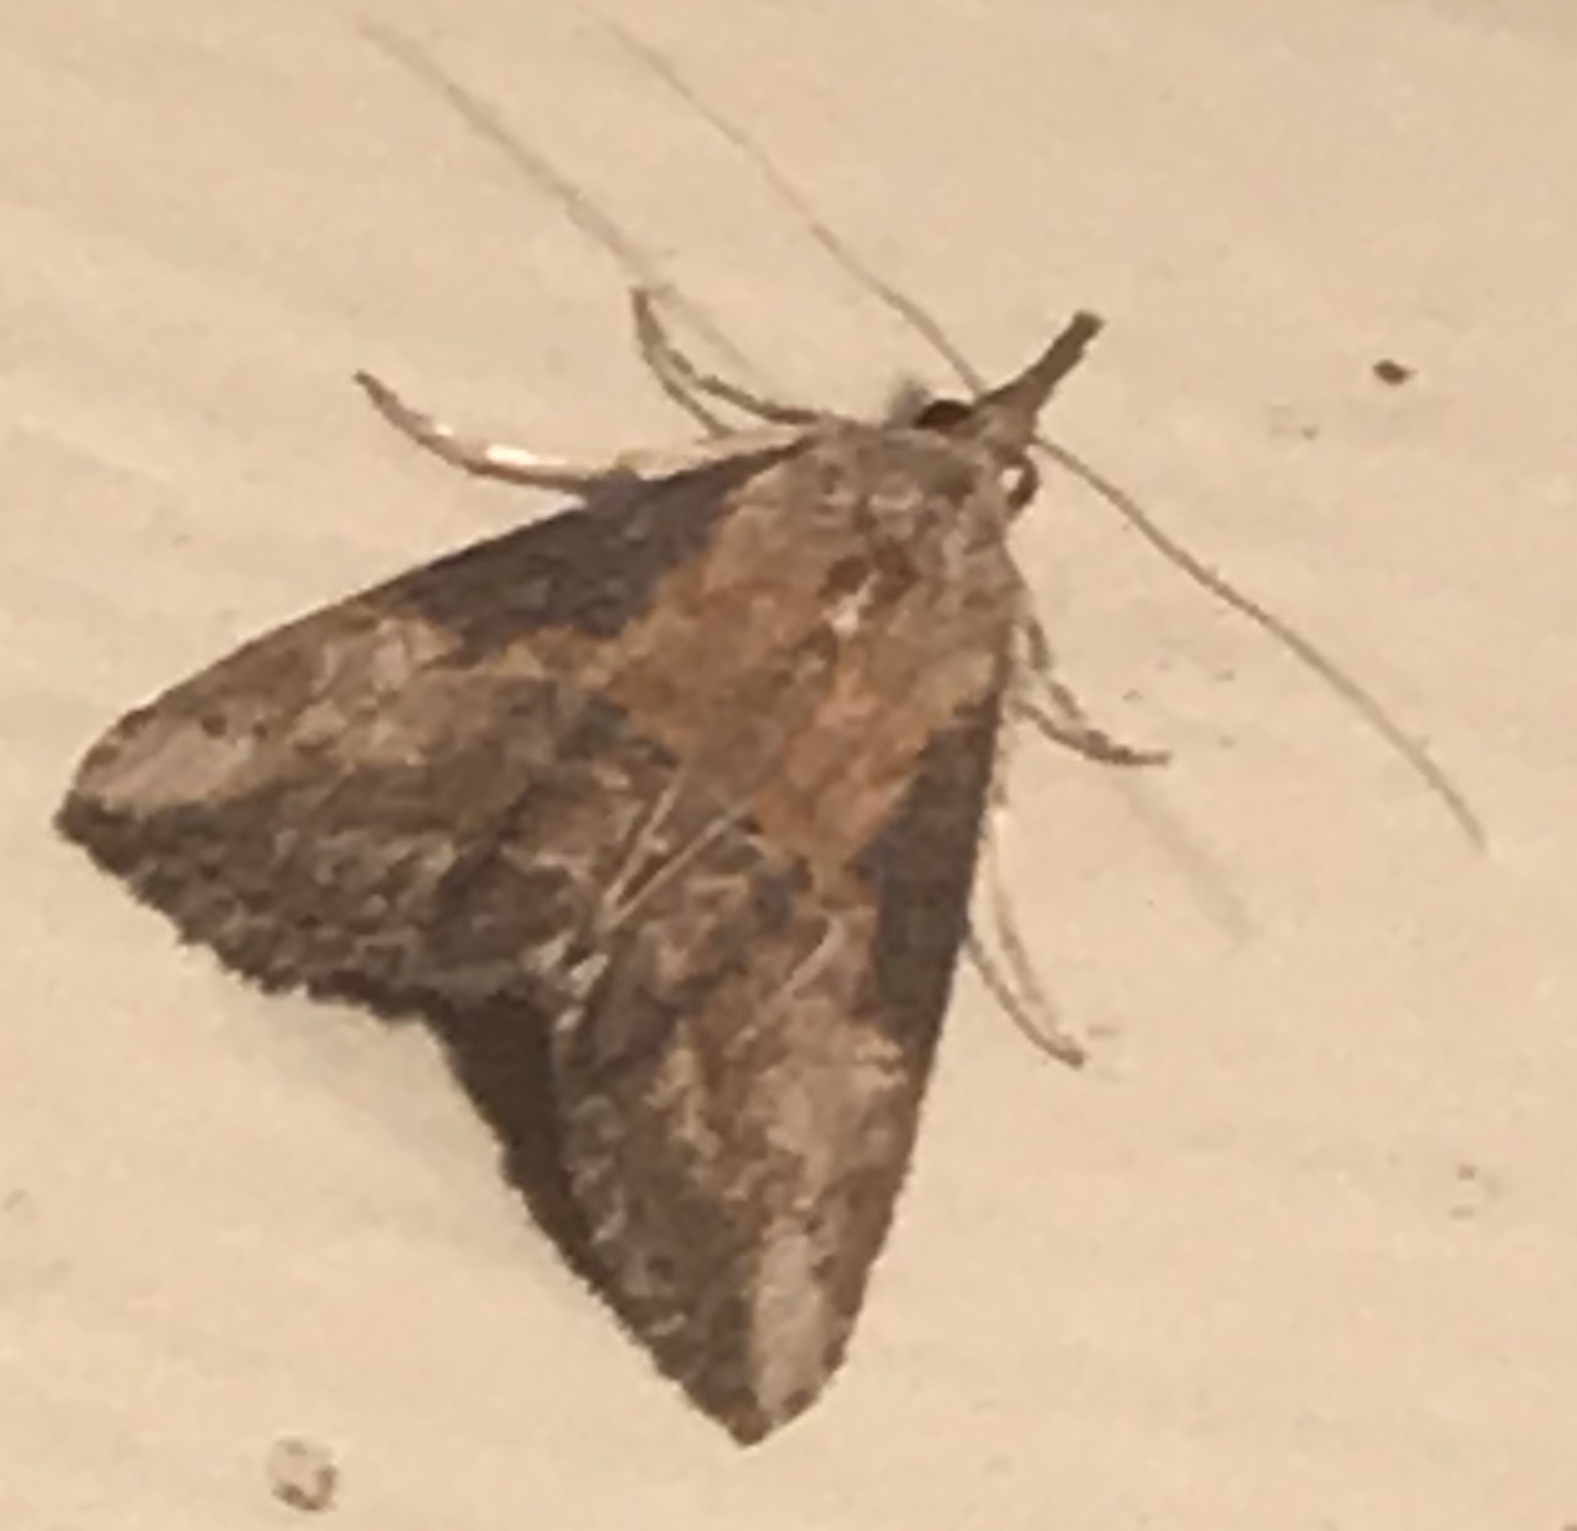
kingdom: Animalia
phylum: Arthropoda
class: Insecta
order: Lepidoptera
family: Erebidae
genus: Hypena
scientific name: Hypena scabra
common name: Green cloverworm
